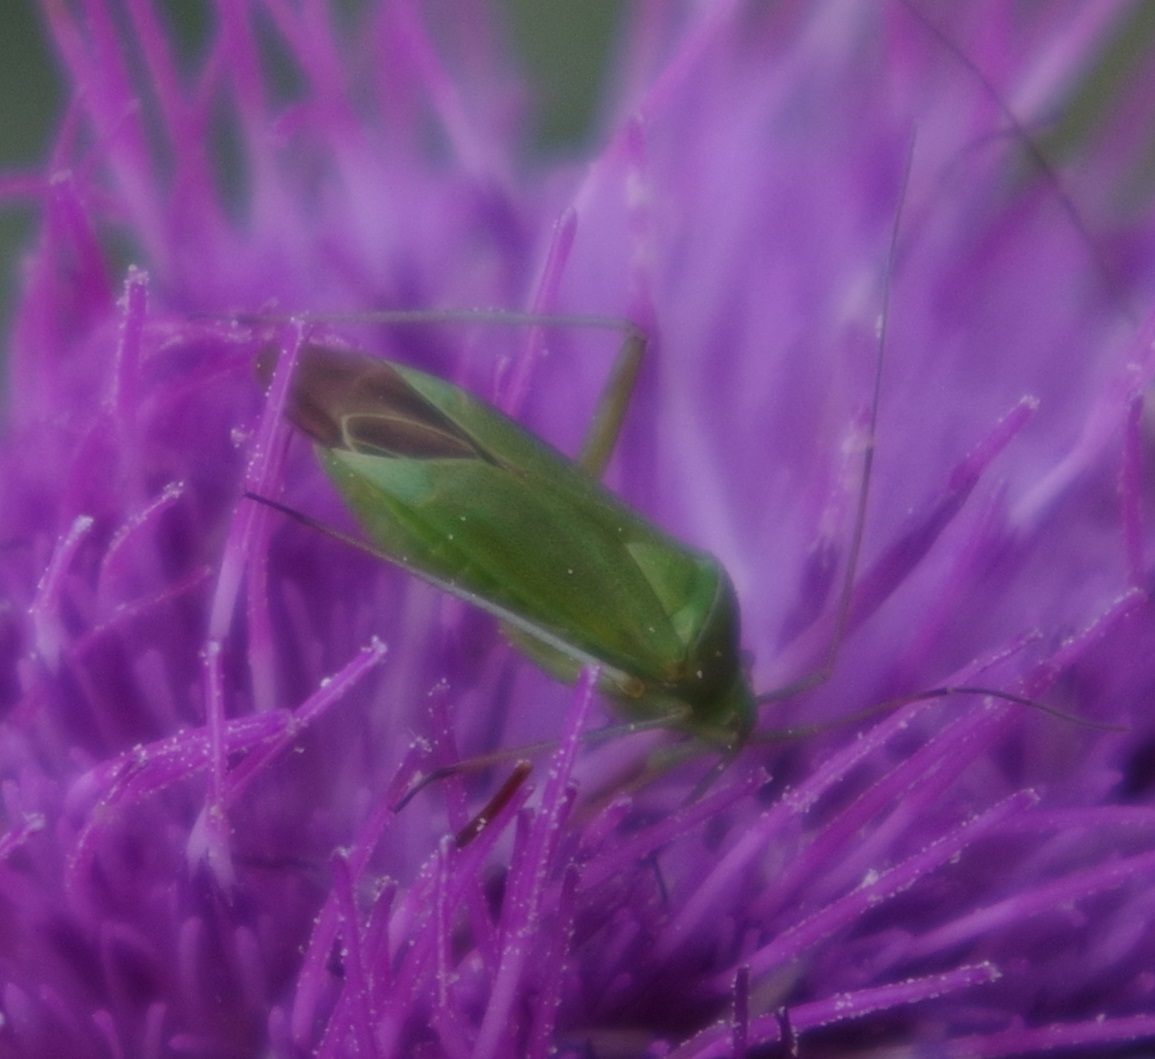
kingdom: Animalia
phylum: Arthropoda
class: Insecta
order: Hemiptera
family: Miridae
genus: Calocoris
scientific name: Calocoris affinis
